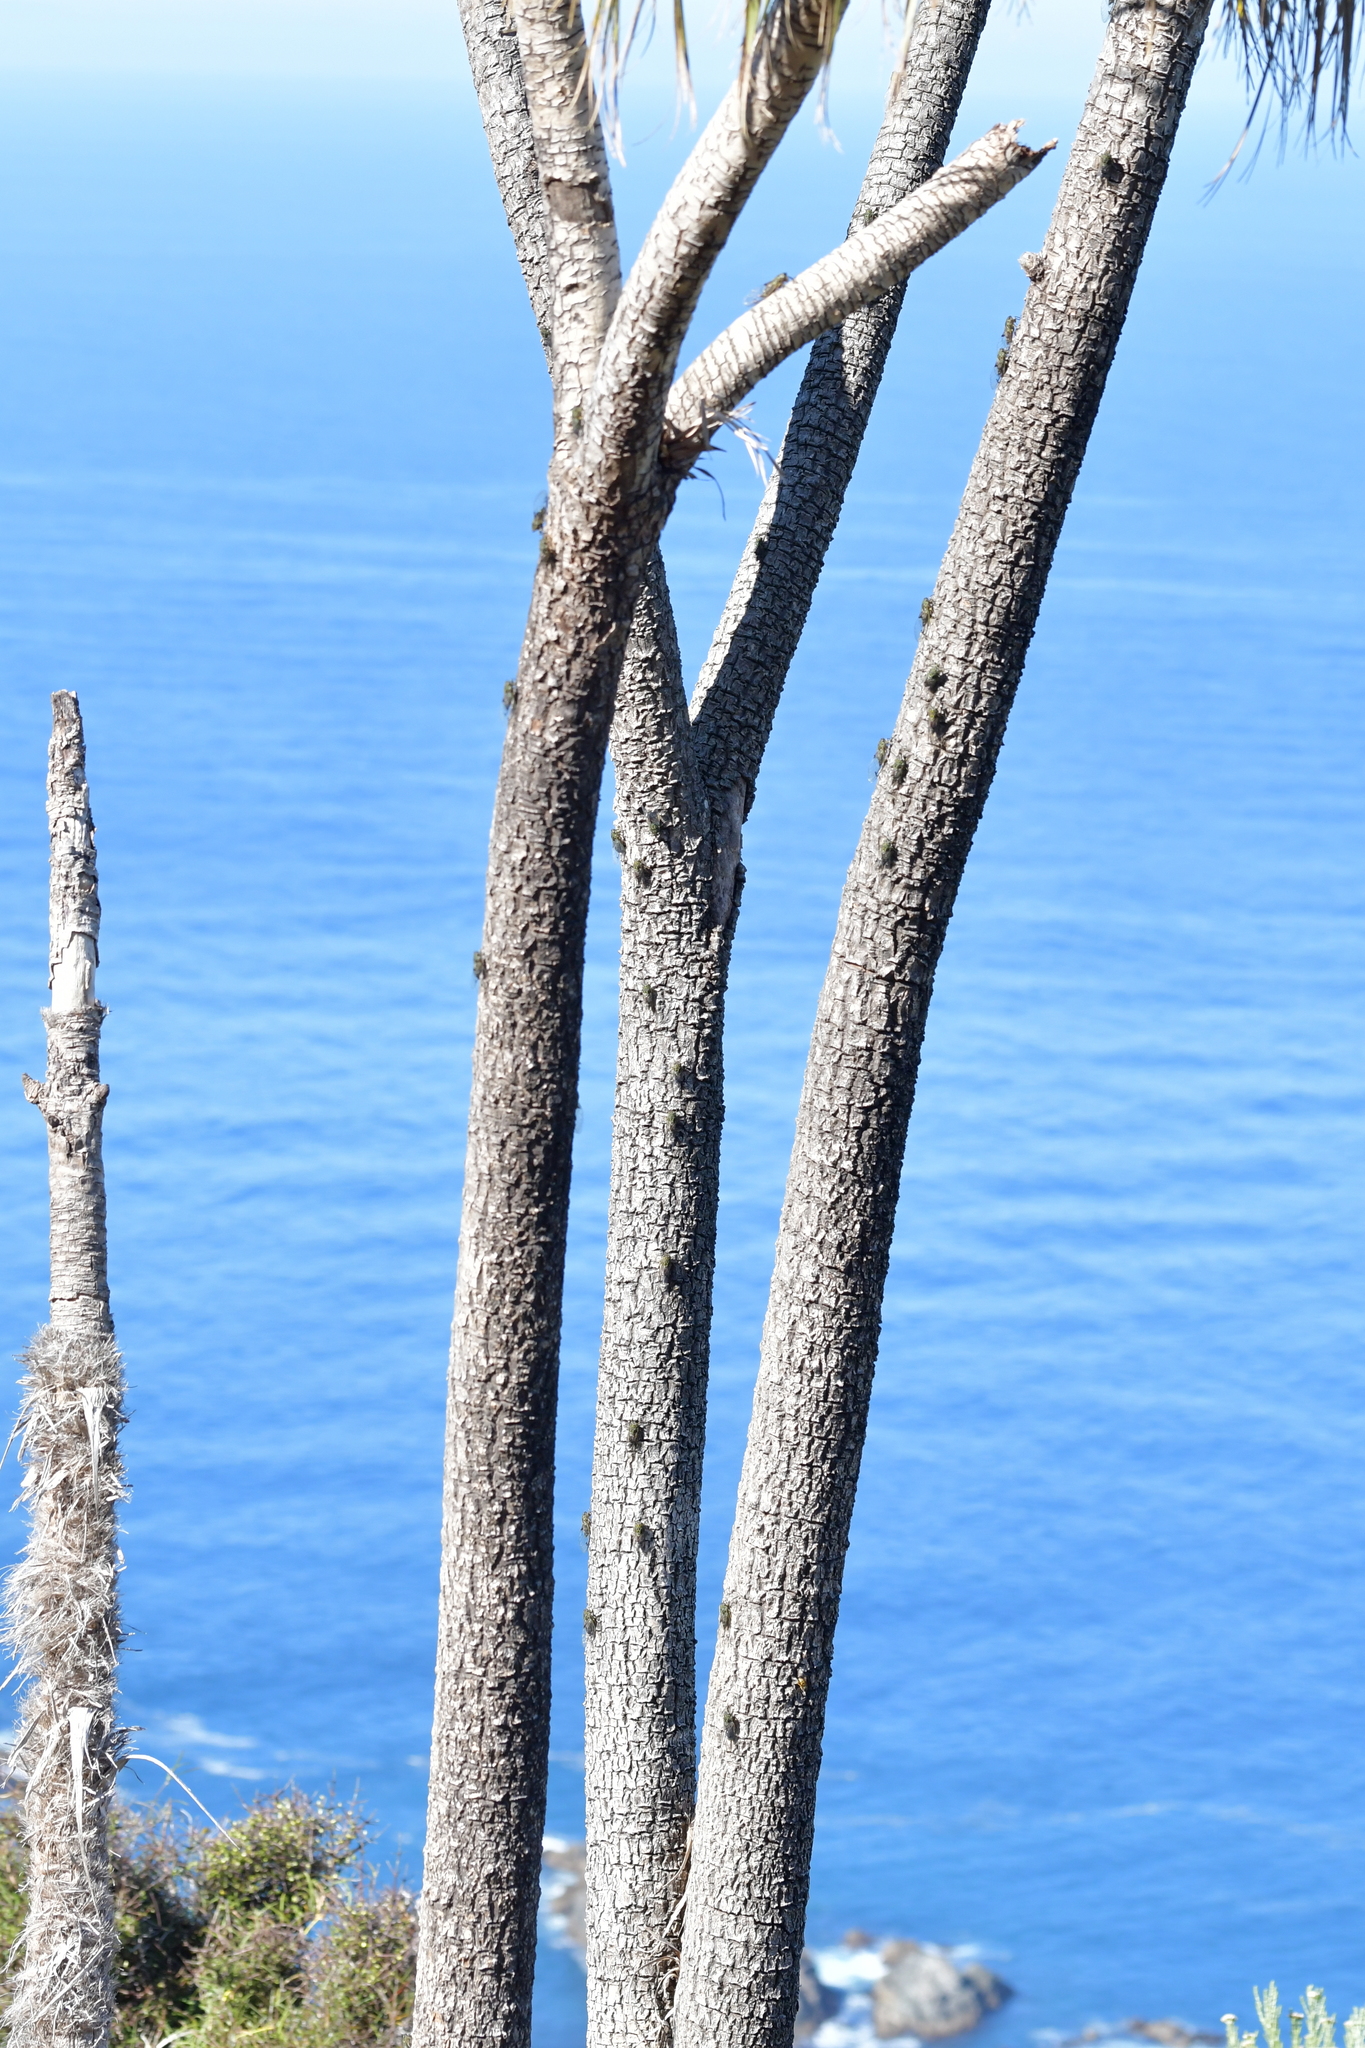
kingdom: Animalia
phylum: Arthropoda
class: Insecta
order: Hemiptera
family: Cicadidae
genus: Amphipsalta
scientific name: Amphipsalta zelandica
